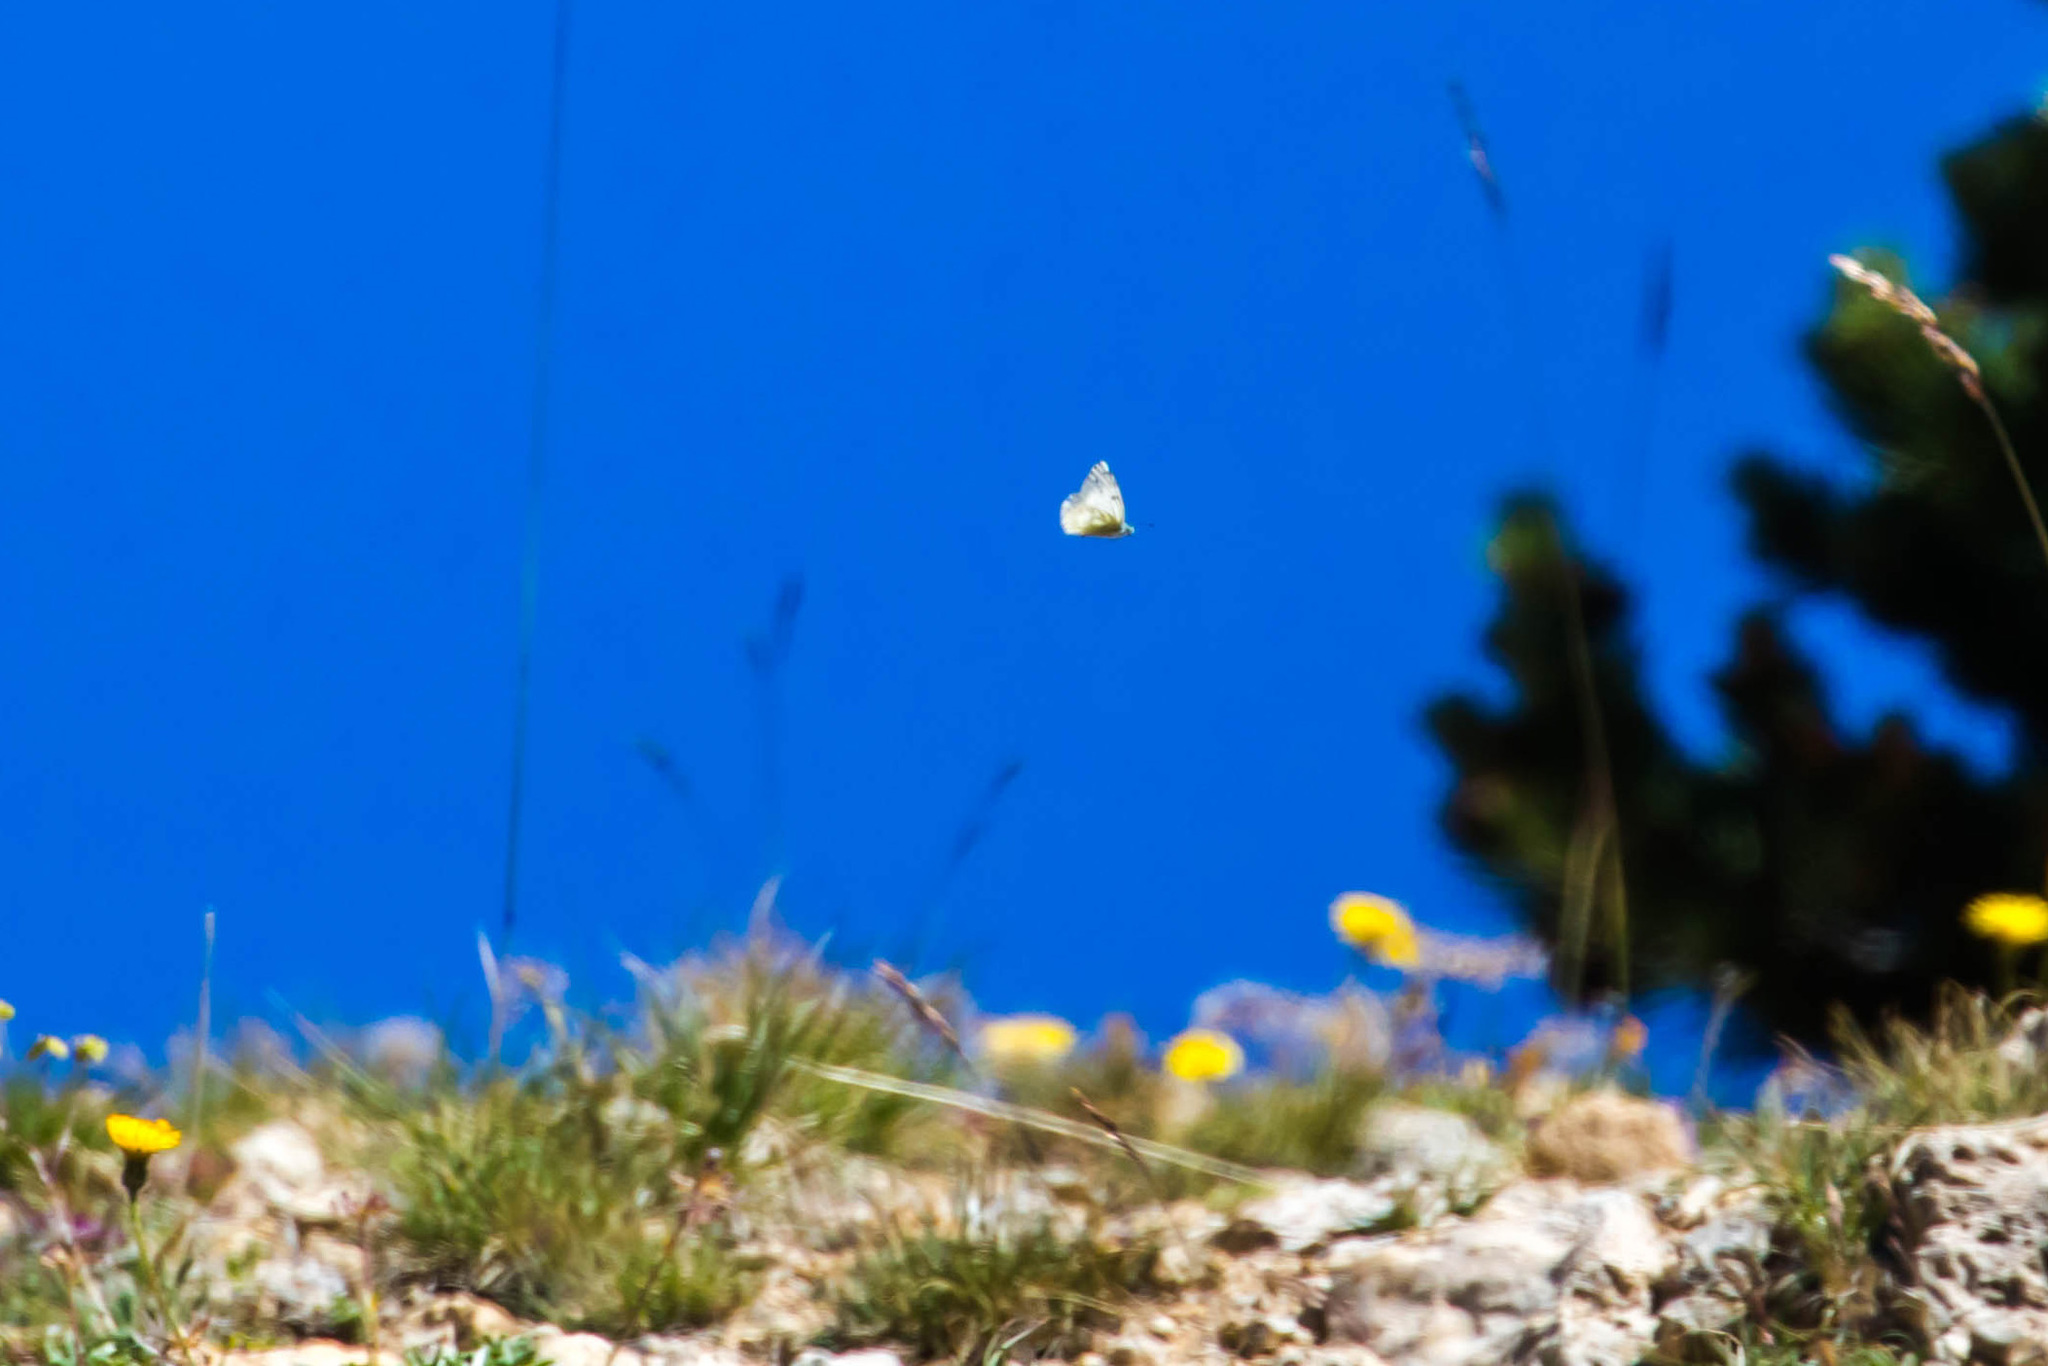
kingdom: Animalia
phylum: Arthropoda
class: Insecta
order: Lepidoptera
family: Pieridae
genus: Pontia
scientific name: Pontia callidice
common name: Peak white
